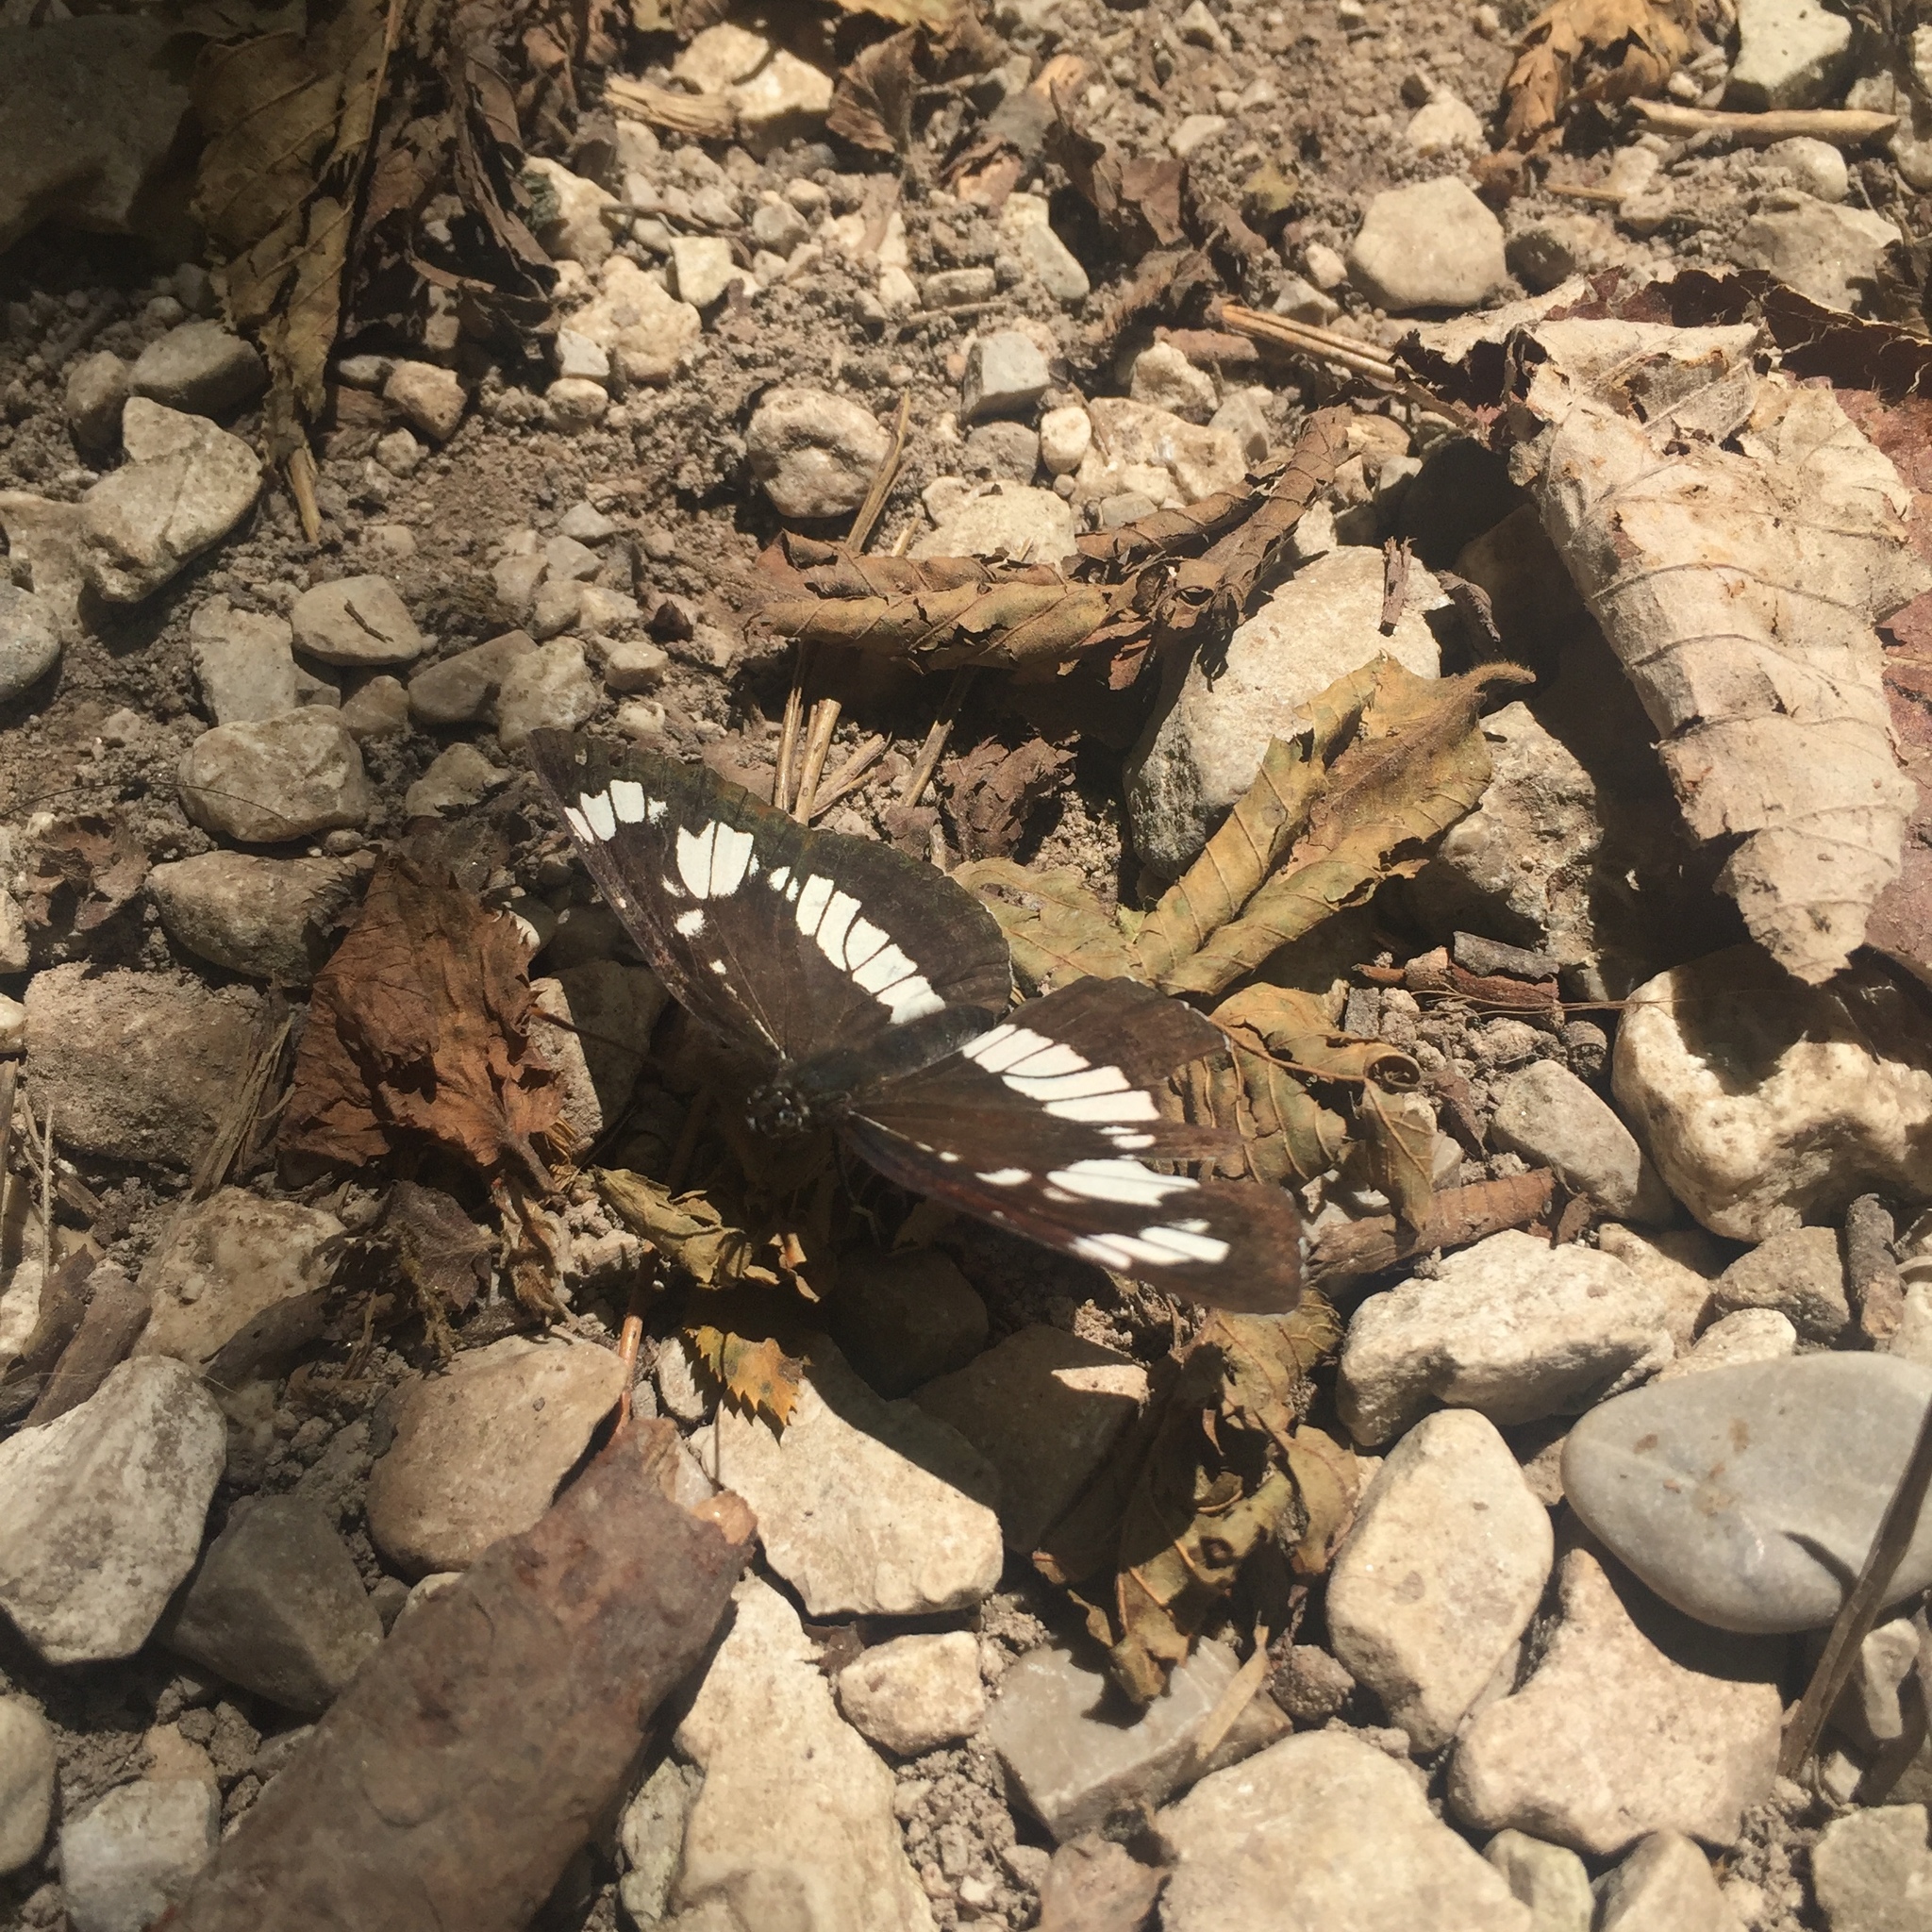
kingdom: Animalia
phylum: Arthropoda
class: Insecta
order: Lepidoptera
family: Nymphalidae
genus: Neptis
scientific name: Neptis rivularis
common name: Hungarian glider
